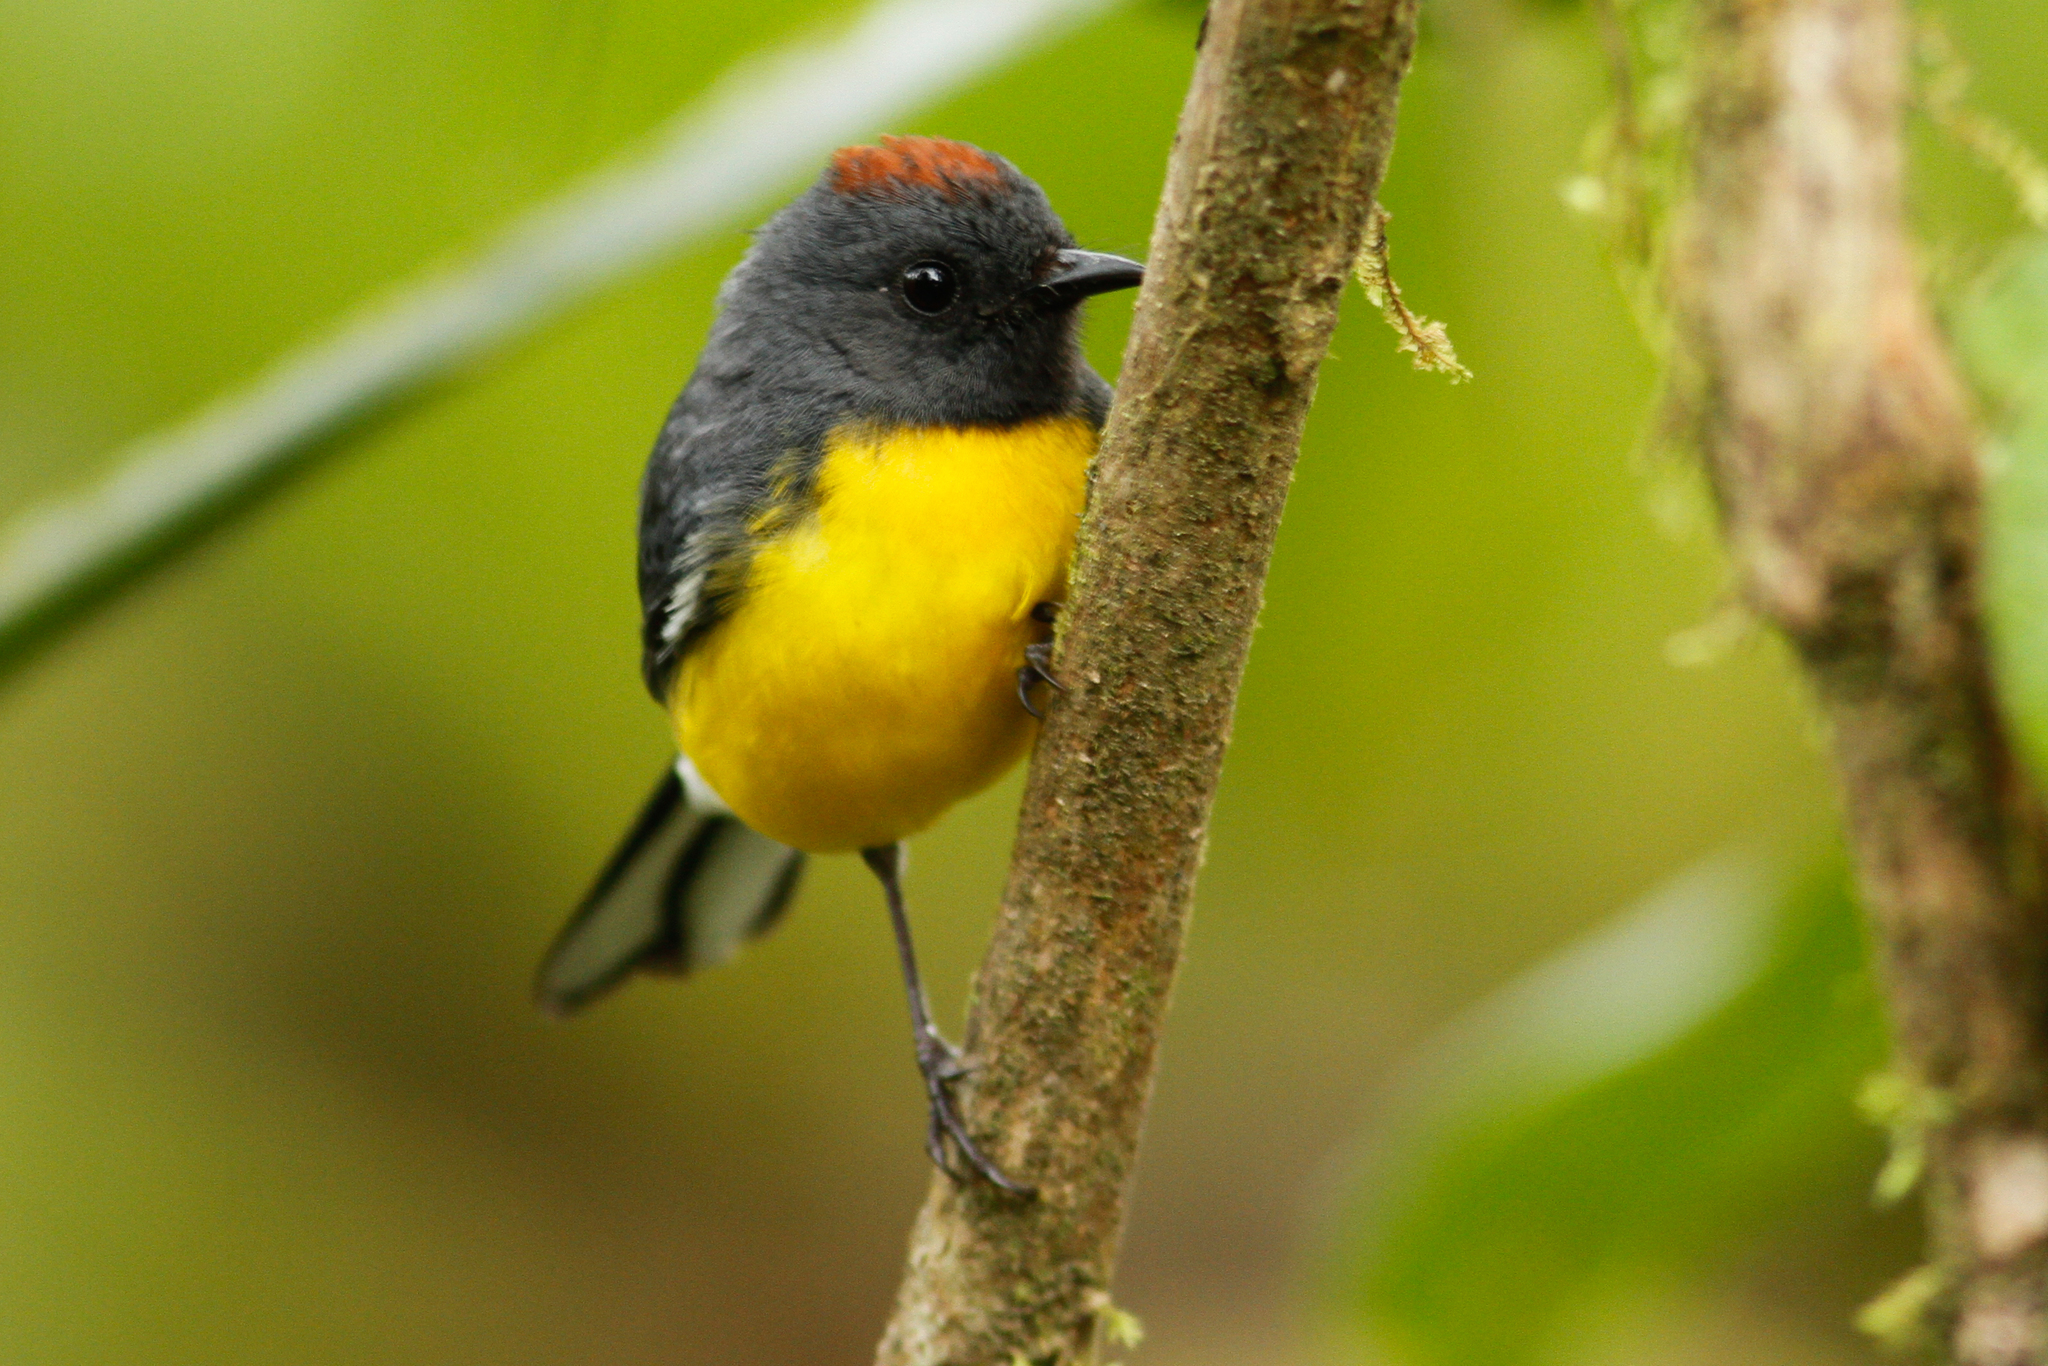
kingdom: Animalia
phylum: Chordata
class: Aves
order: Passeriformes
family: Parulidae
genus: Myioborus
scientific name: Myioborus miniatus
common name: Slate-throated redstart
